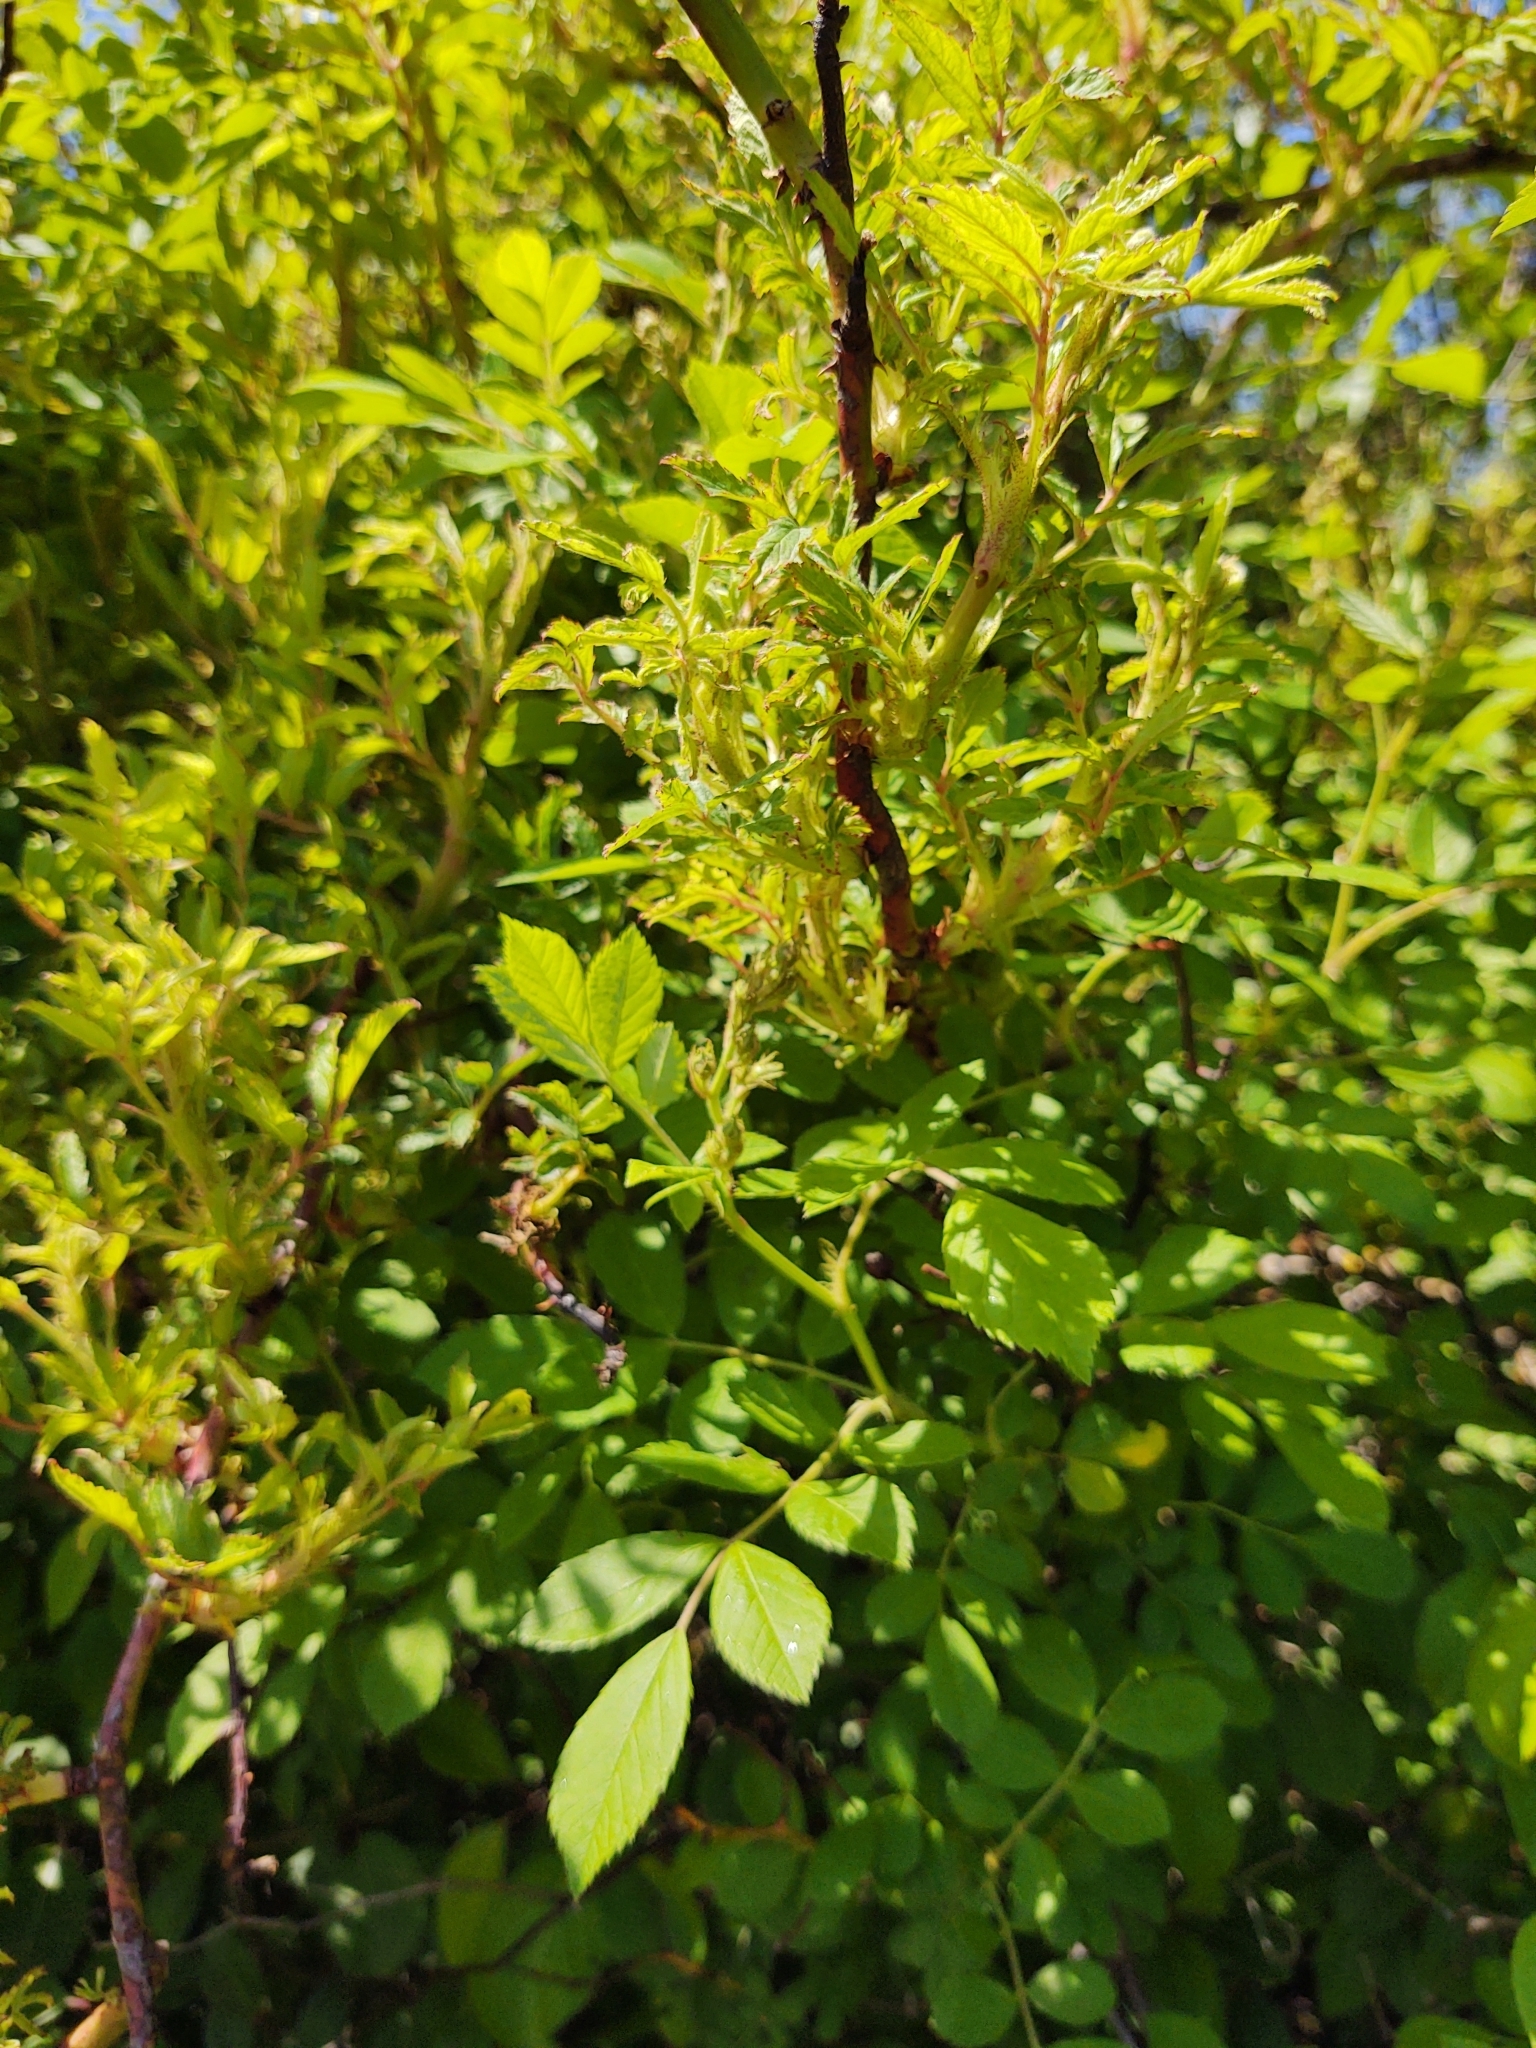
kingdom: Viruses
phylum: Negarnaviricota
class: Ellioviricetes
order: Bunyavirales
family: Fimoviridae
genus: Emaravirus
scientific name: Emaravirus rosae
